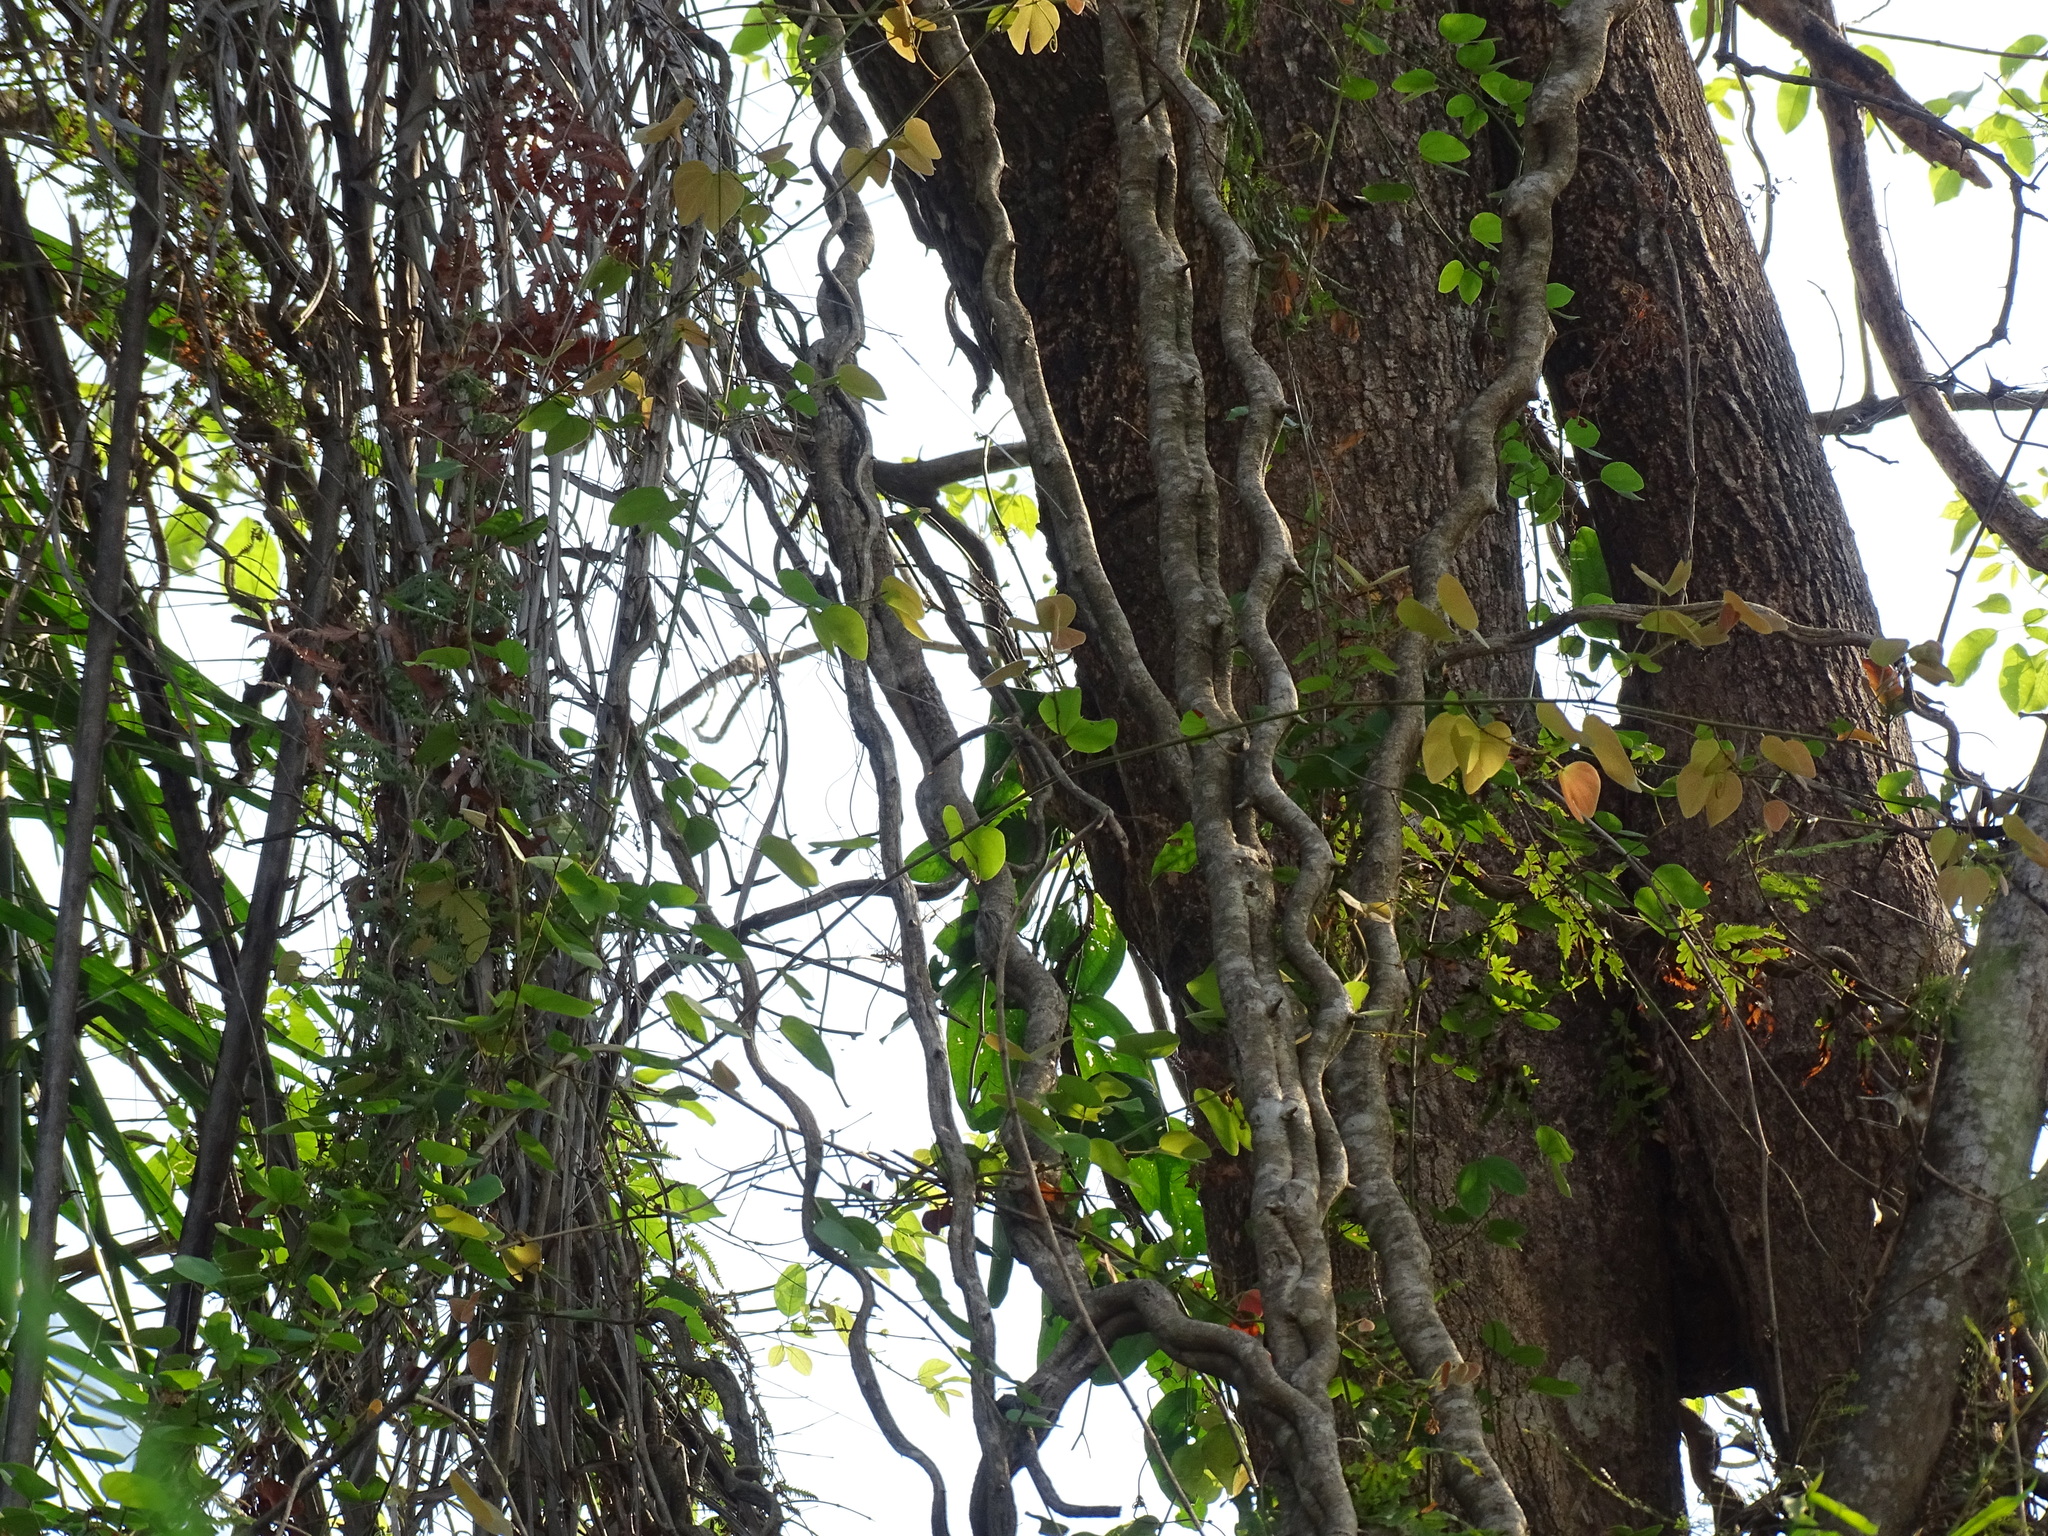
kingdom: Plantae
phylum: Tracheophyta
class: Magnoliopsida
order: Fabales
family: Fabaceae
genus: Schnella
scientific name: Schnella glabra
